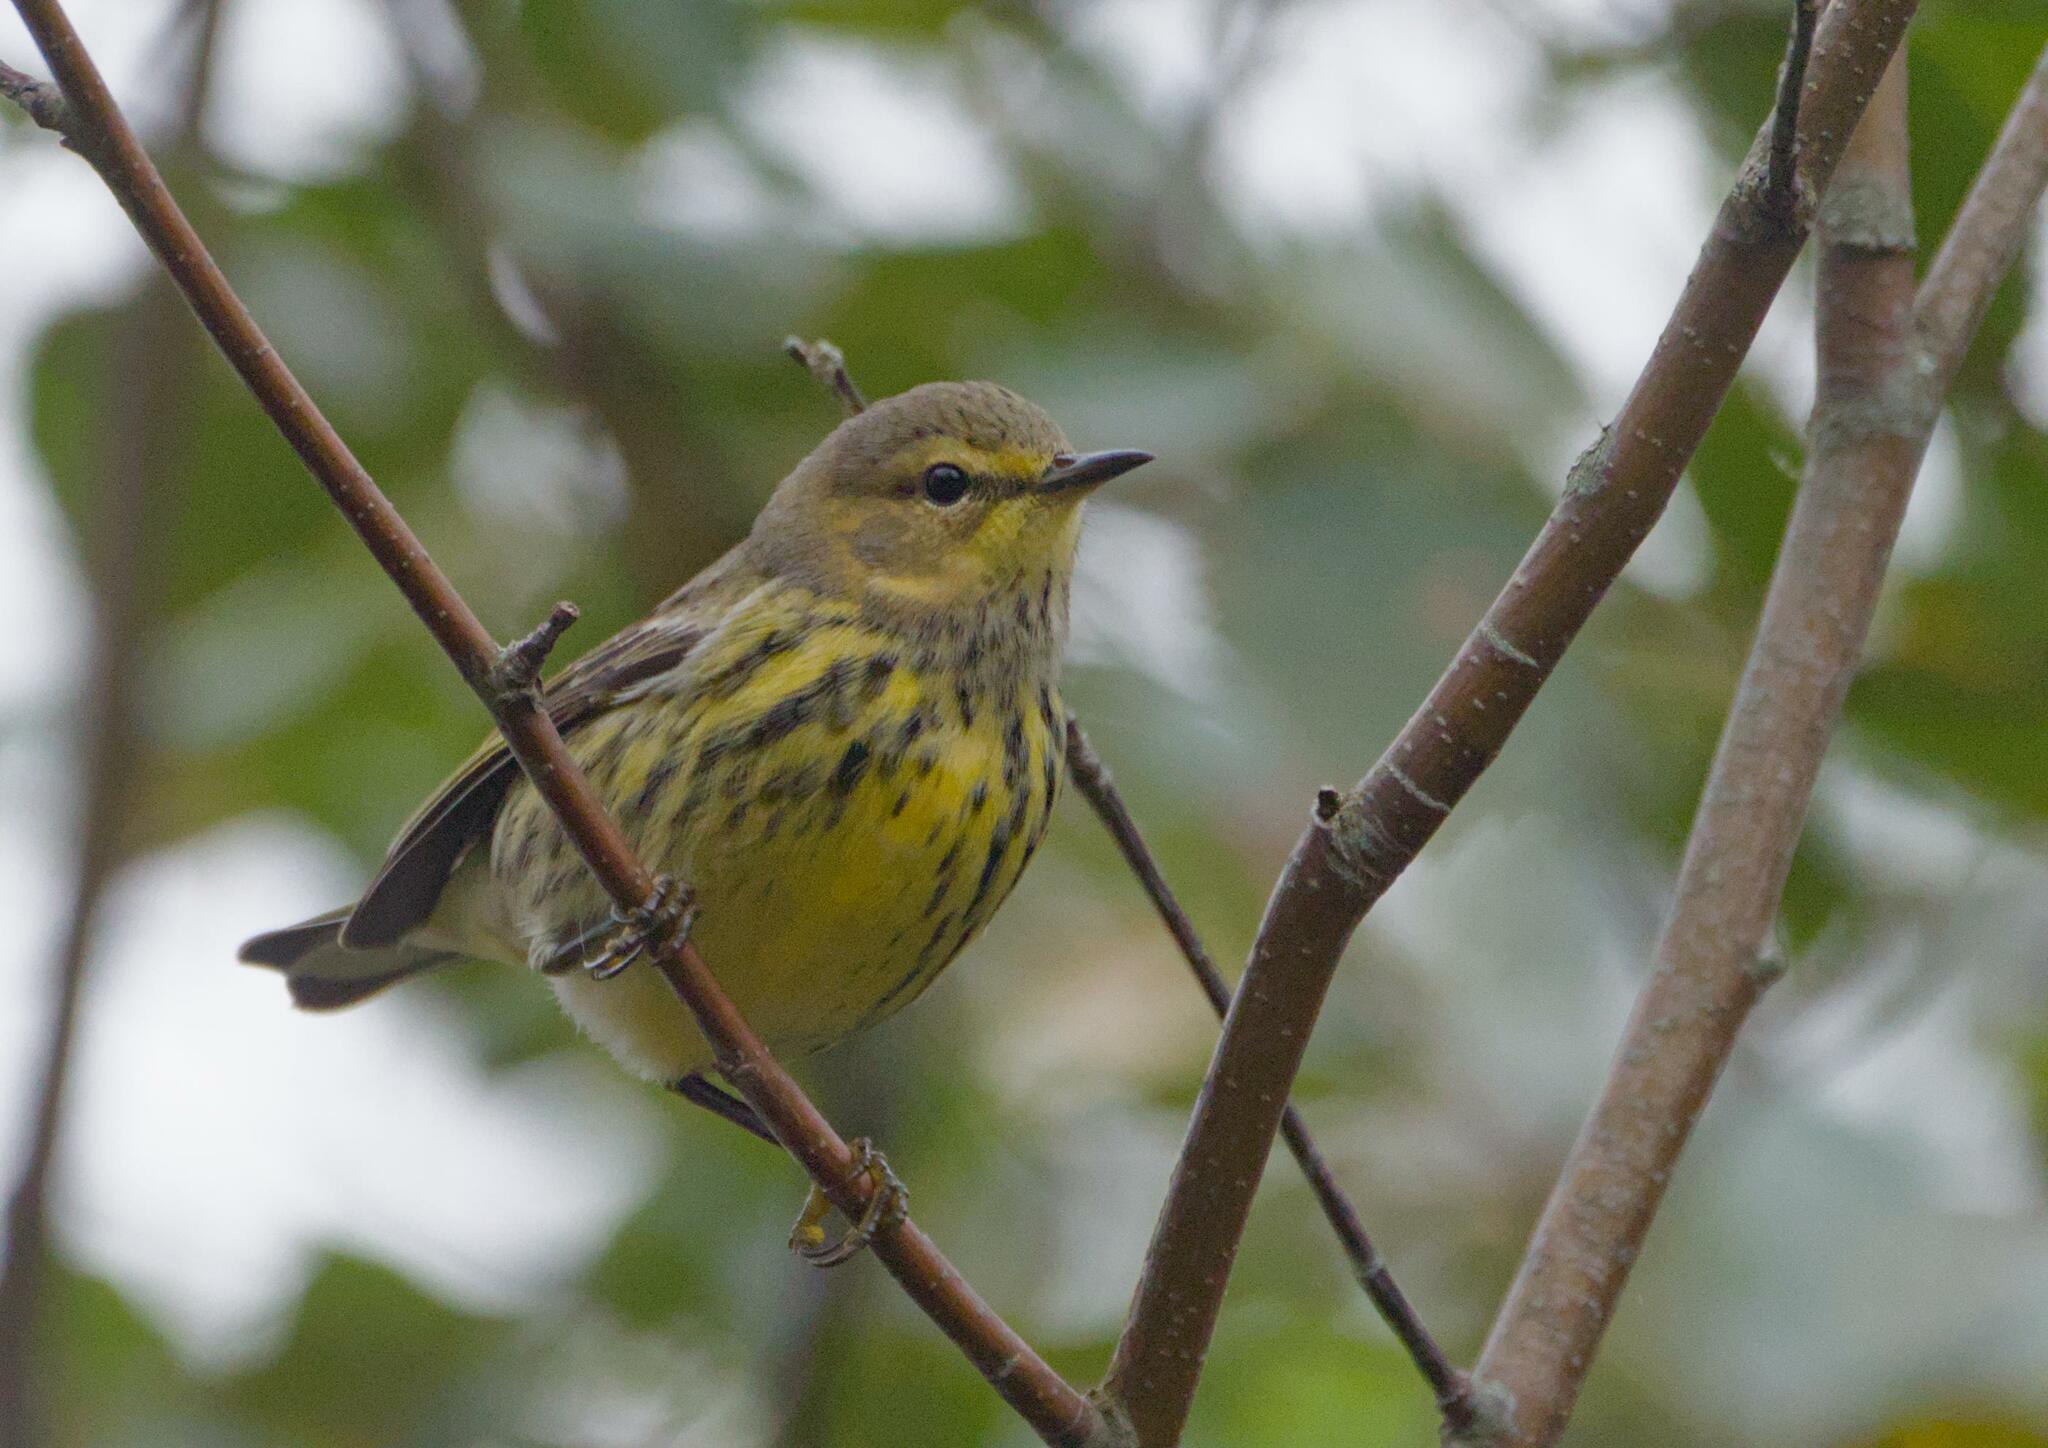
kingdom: Animalia
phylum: Chordata
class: Aves
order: Passeriformes
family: Parulidae
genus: Setophaga
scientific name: Setophaga tigrina
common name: Cape may warbler
